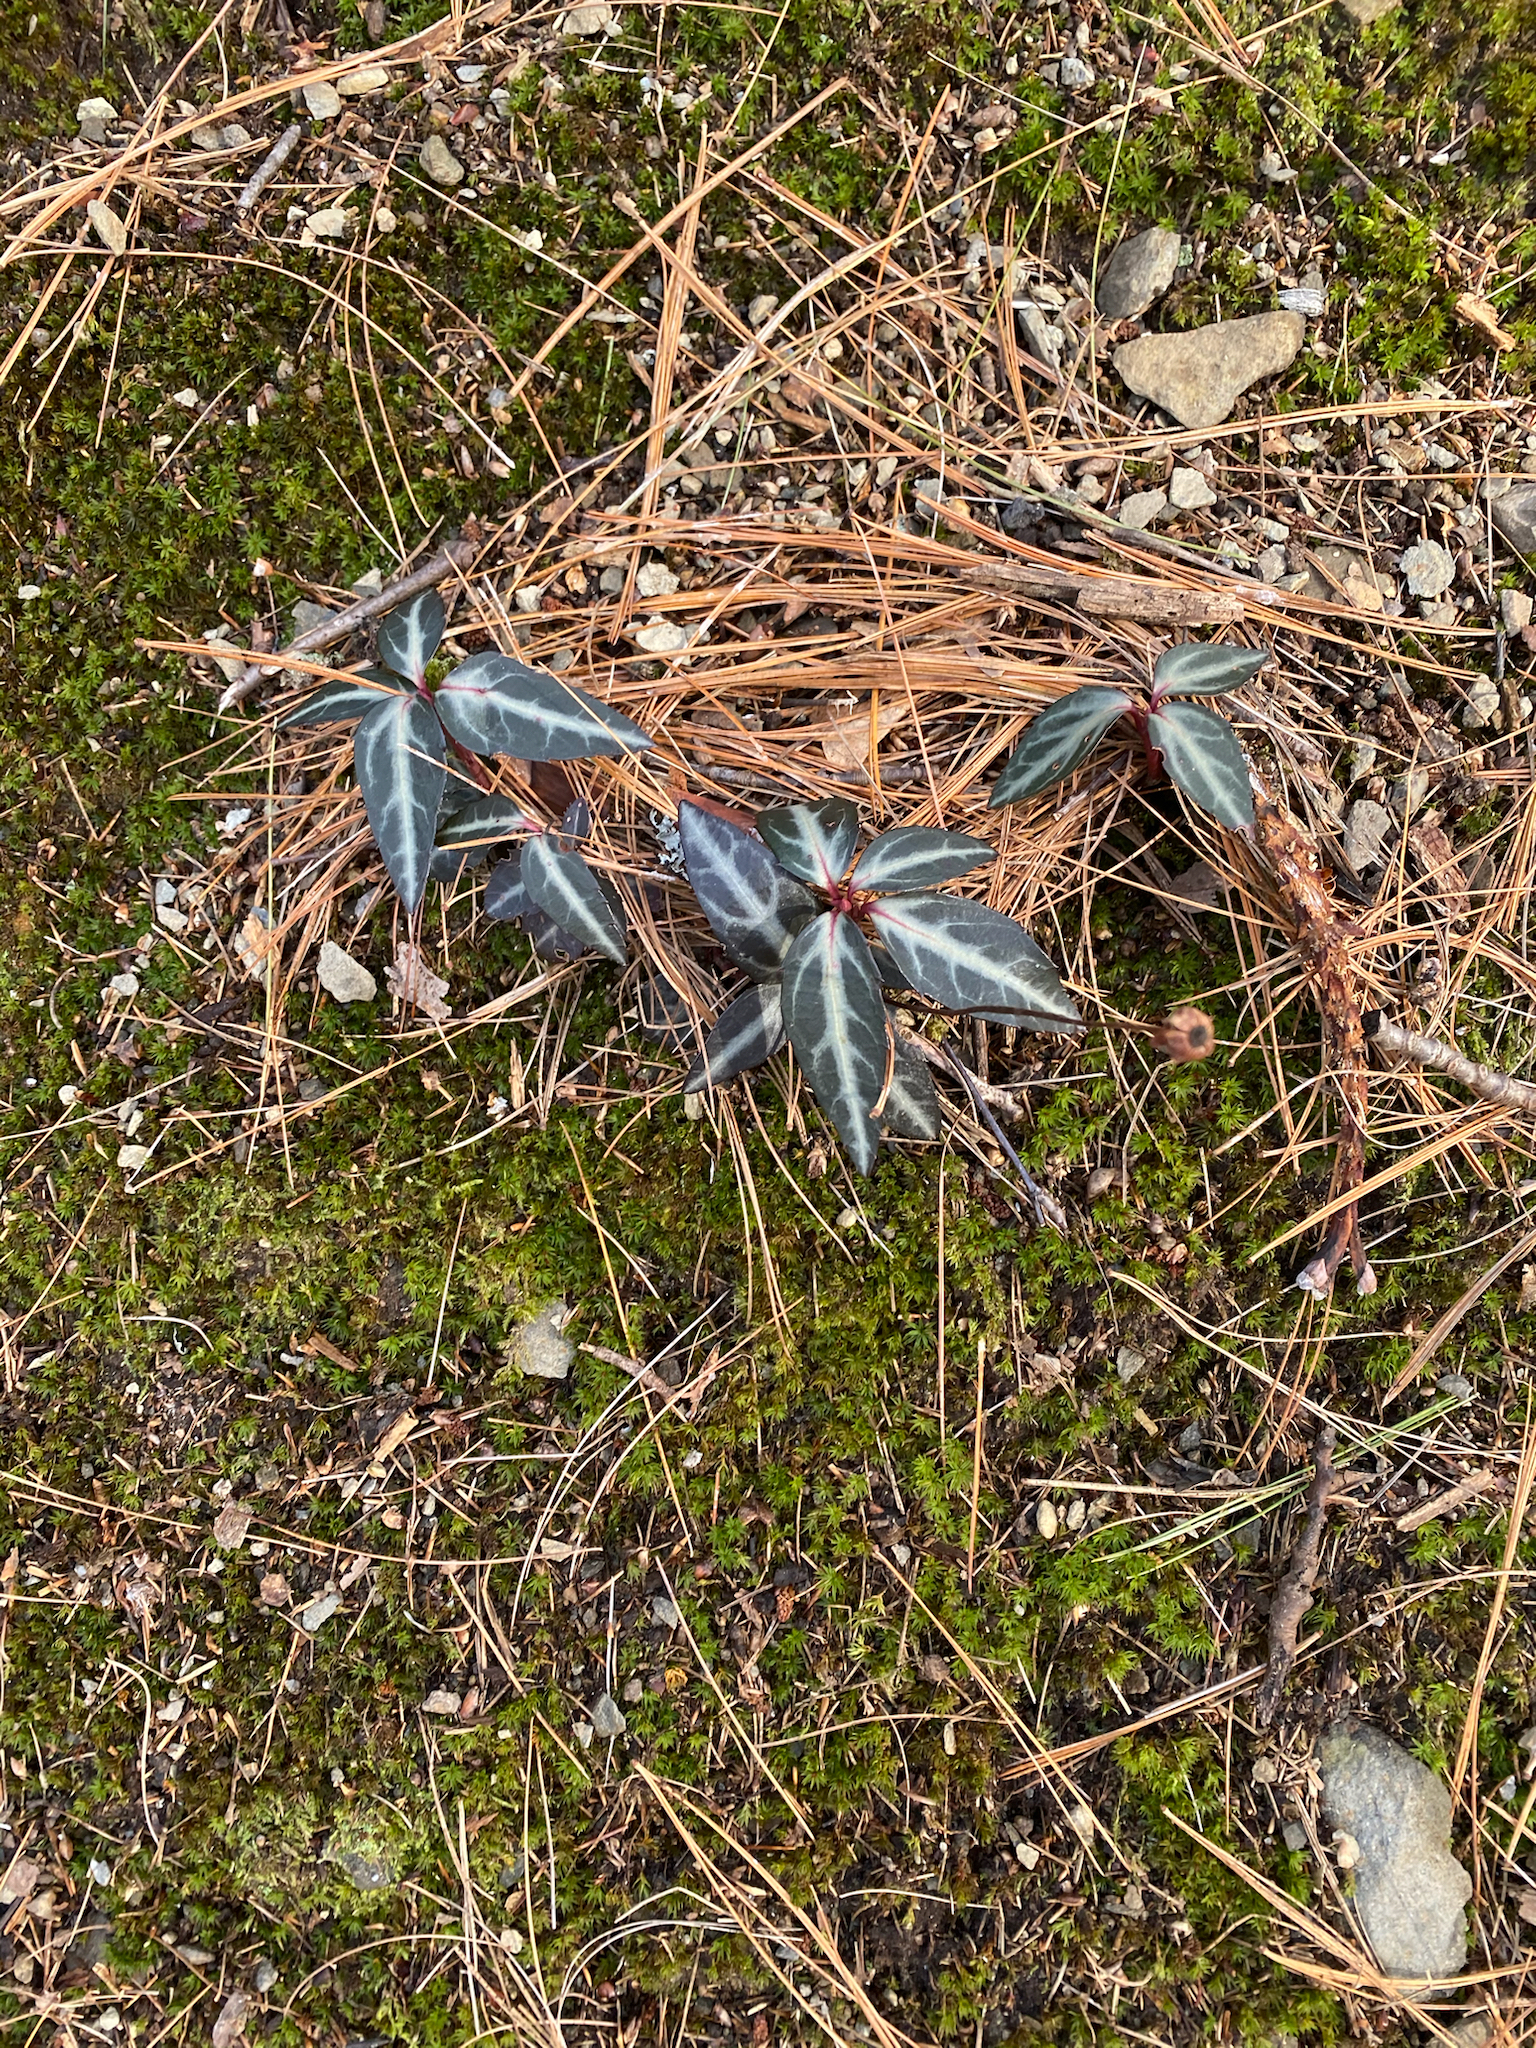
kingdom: Plantae
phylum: Tracheophyta
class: Magnoliopsida
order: Ericales
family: Ericaceae
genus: Chimaphila
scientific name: Chimaphila maculata
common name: Spotted pipsissewa
